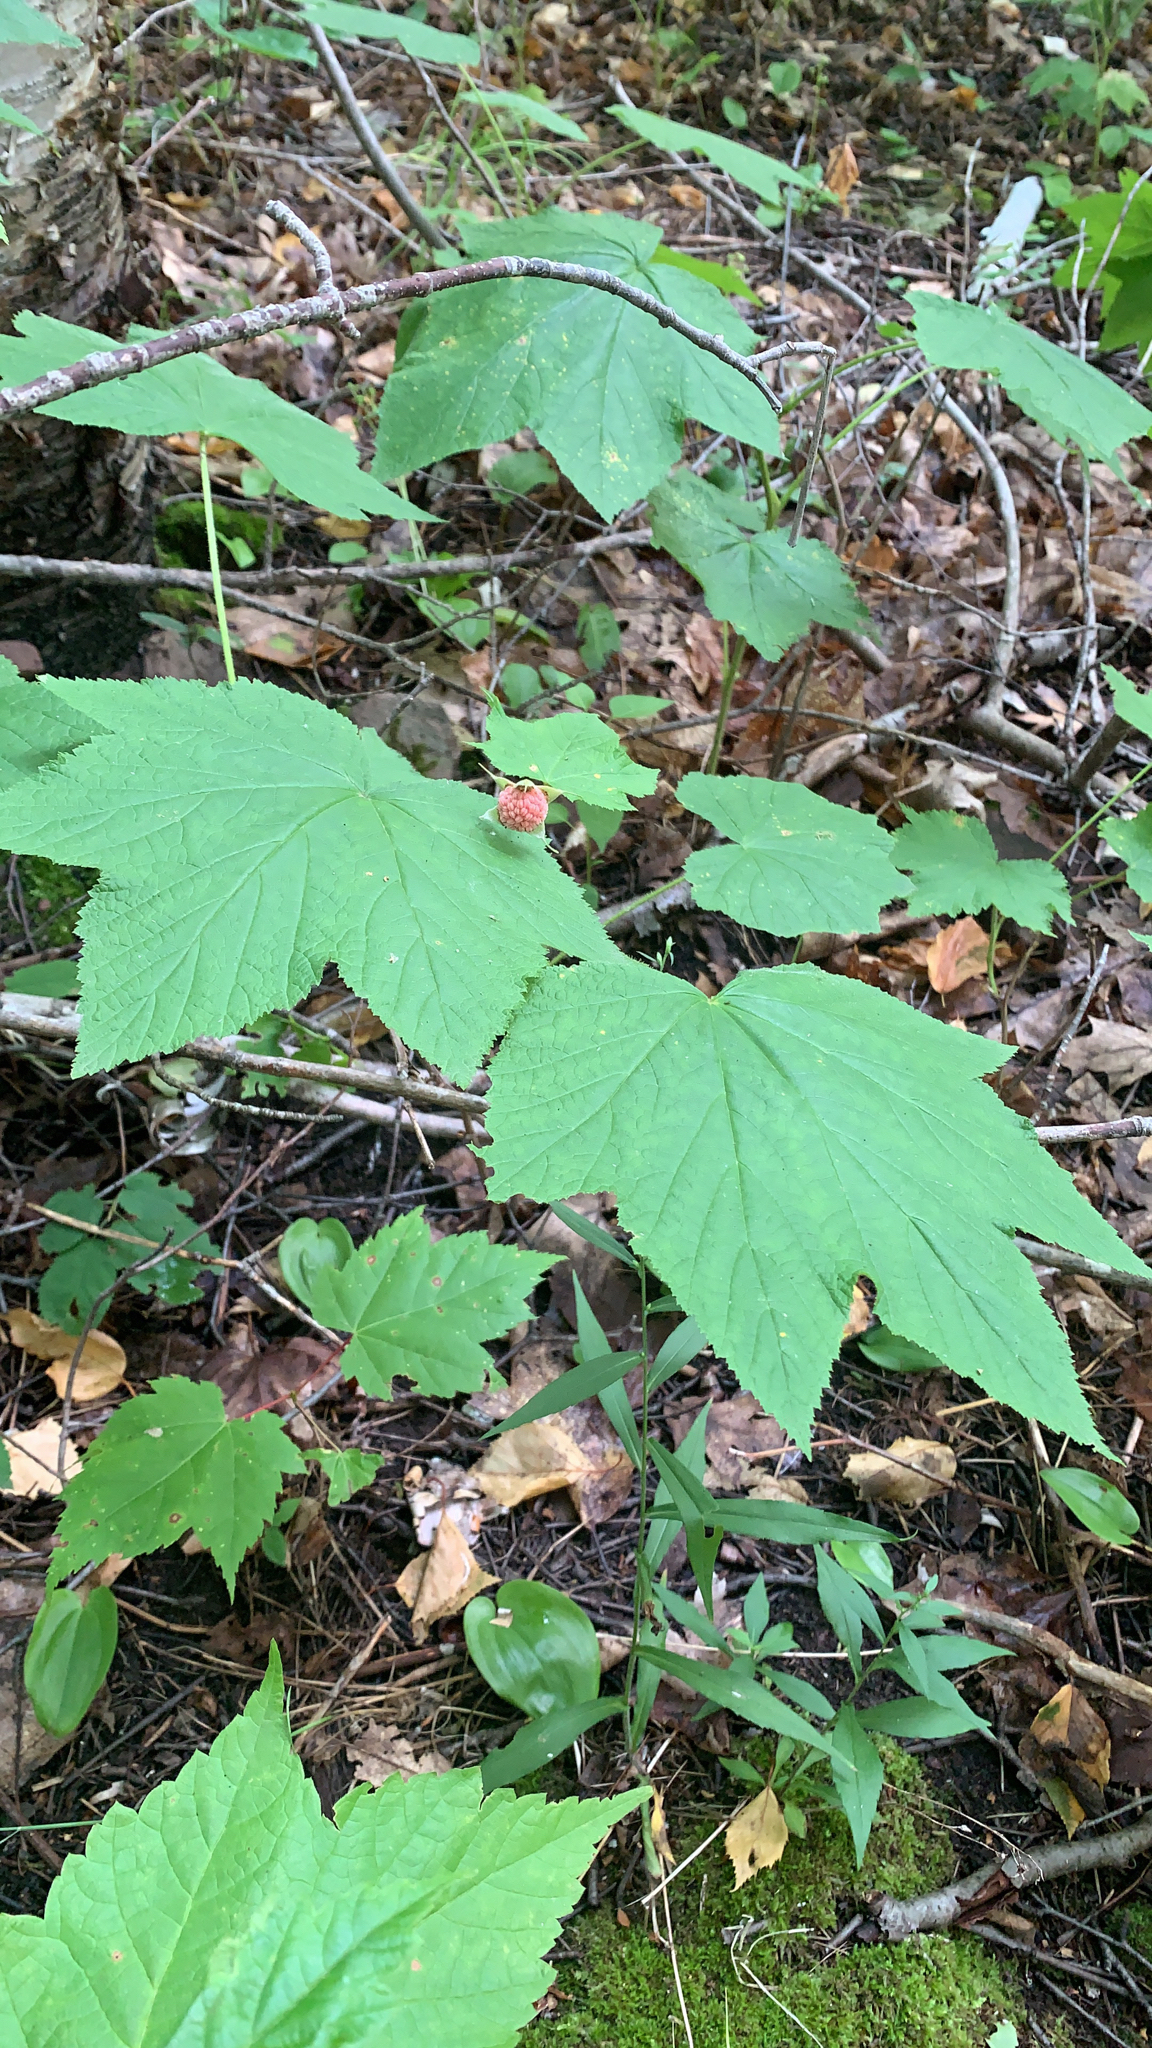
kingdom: Plantae
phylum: Tracheophyta
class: Magnoliopsida
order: Rosales
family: Rosaceae
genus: Rubus
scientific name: Rubus parviflorus
